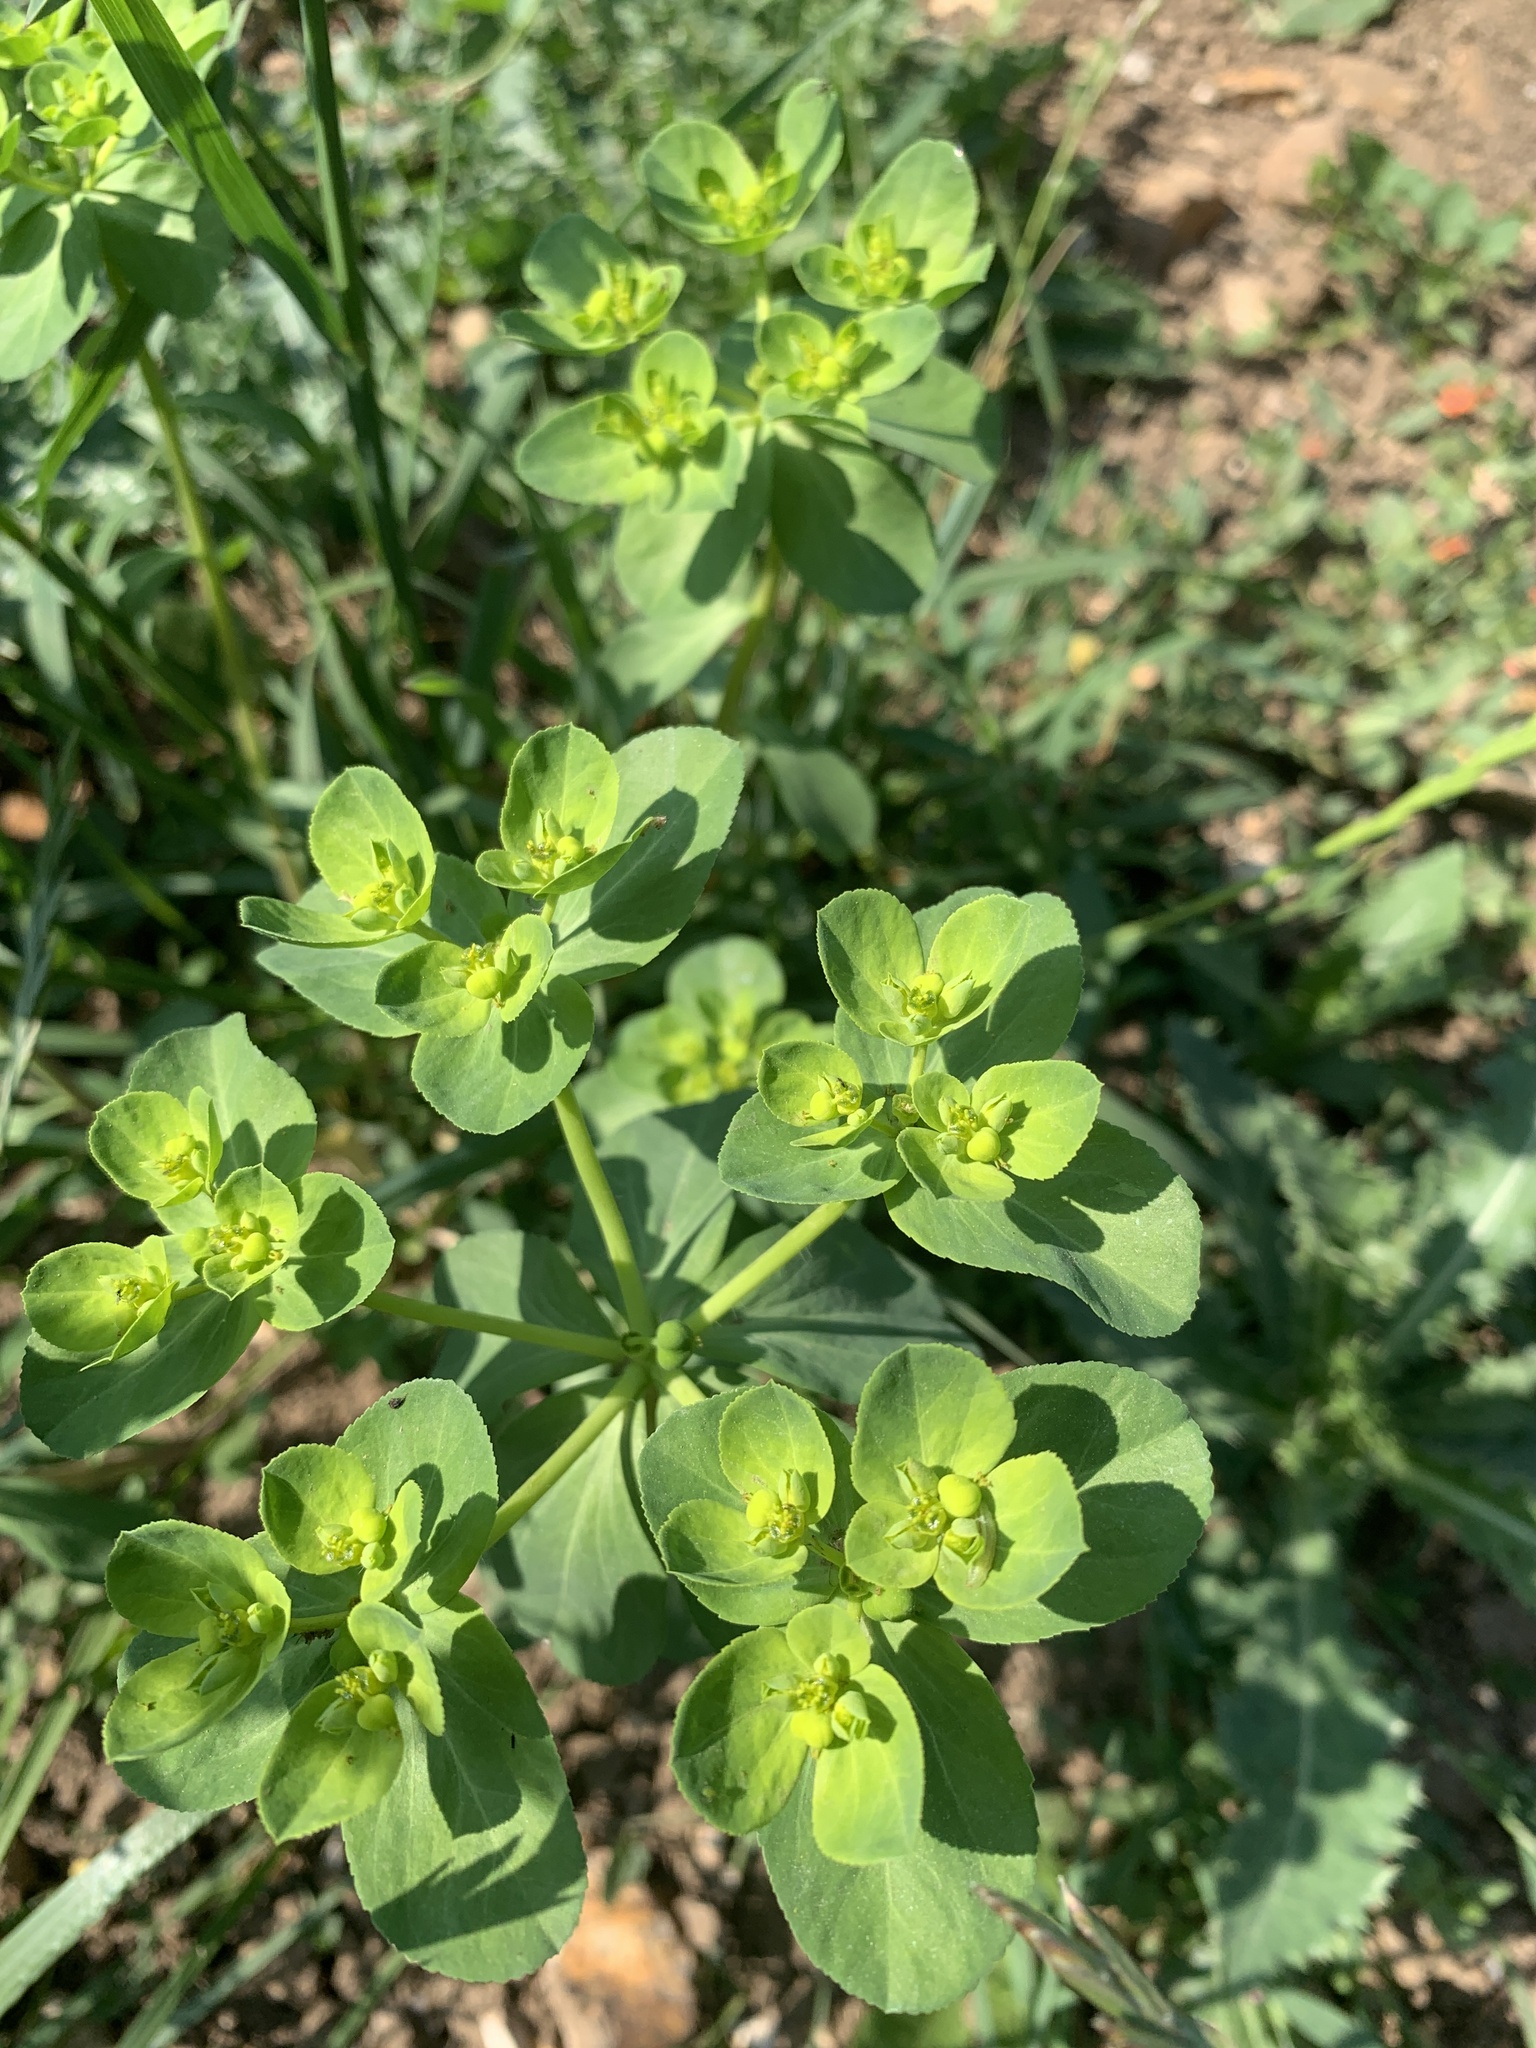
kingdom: Plantae
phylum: Tracheophyta
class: Magnoliopsida
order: Malpighiales
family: Euphorbiaceae
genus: Euphorbia
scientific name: Euphorbia helioscopia
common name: Sun spurge
